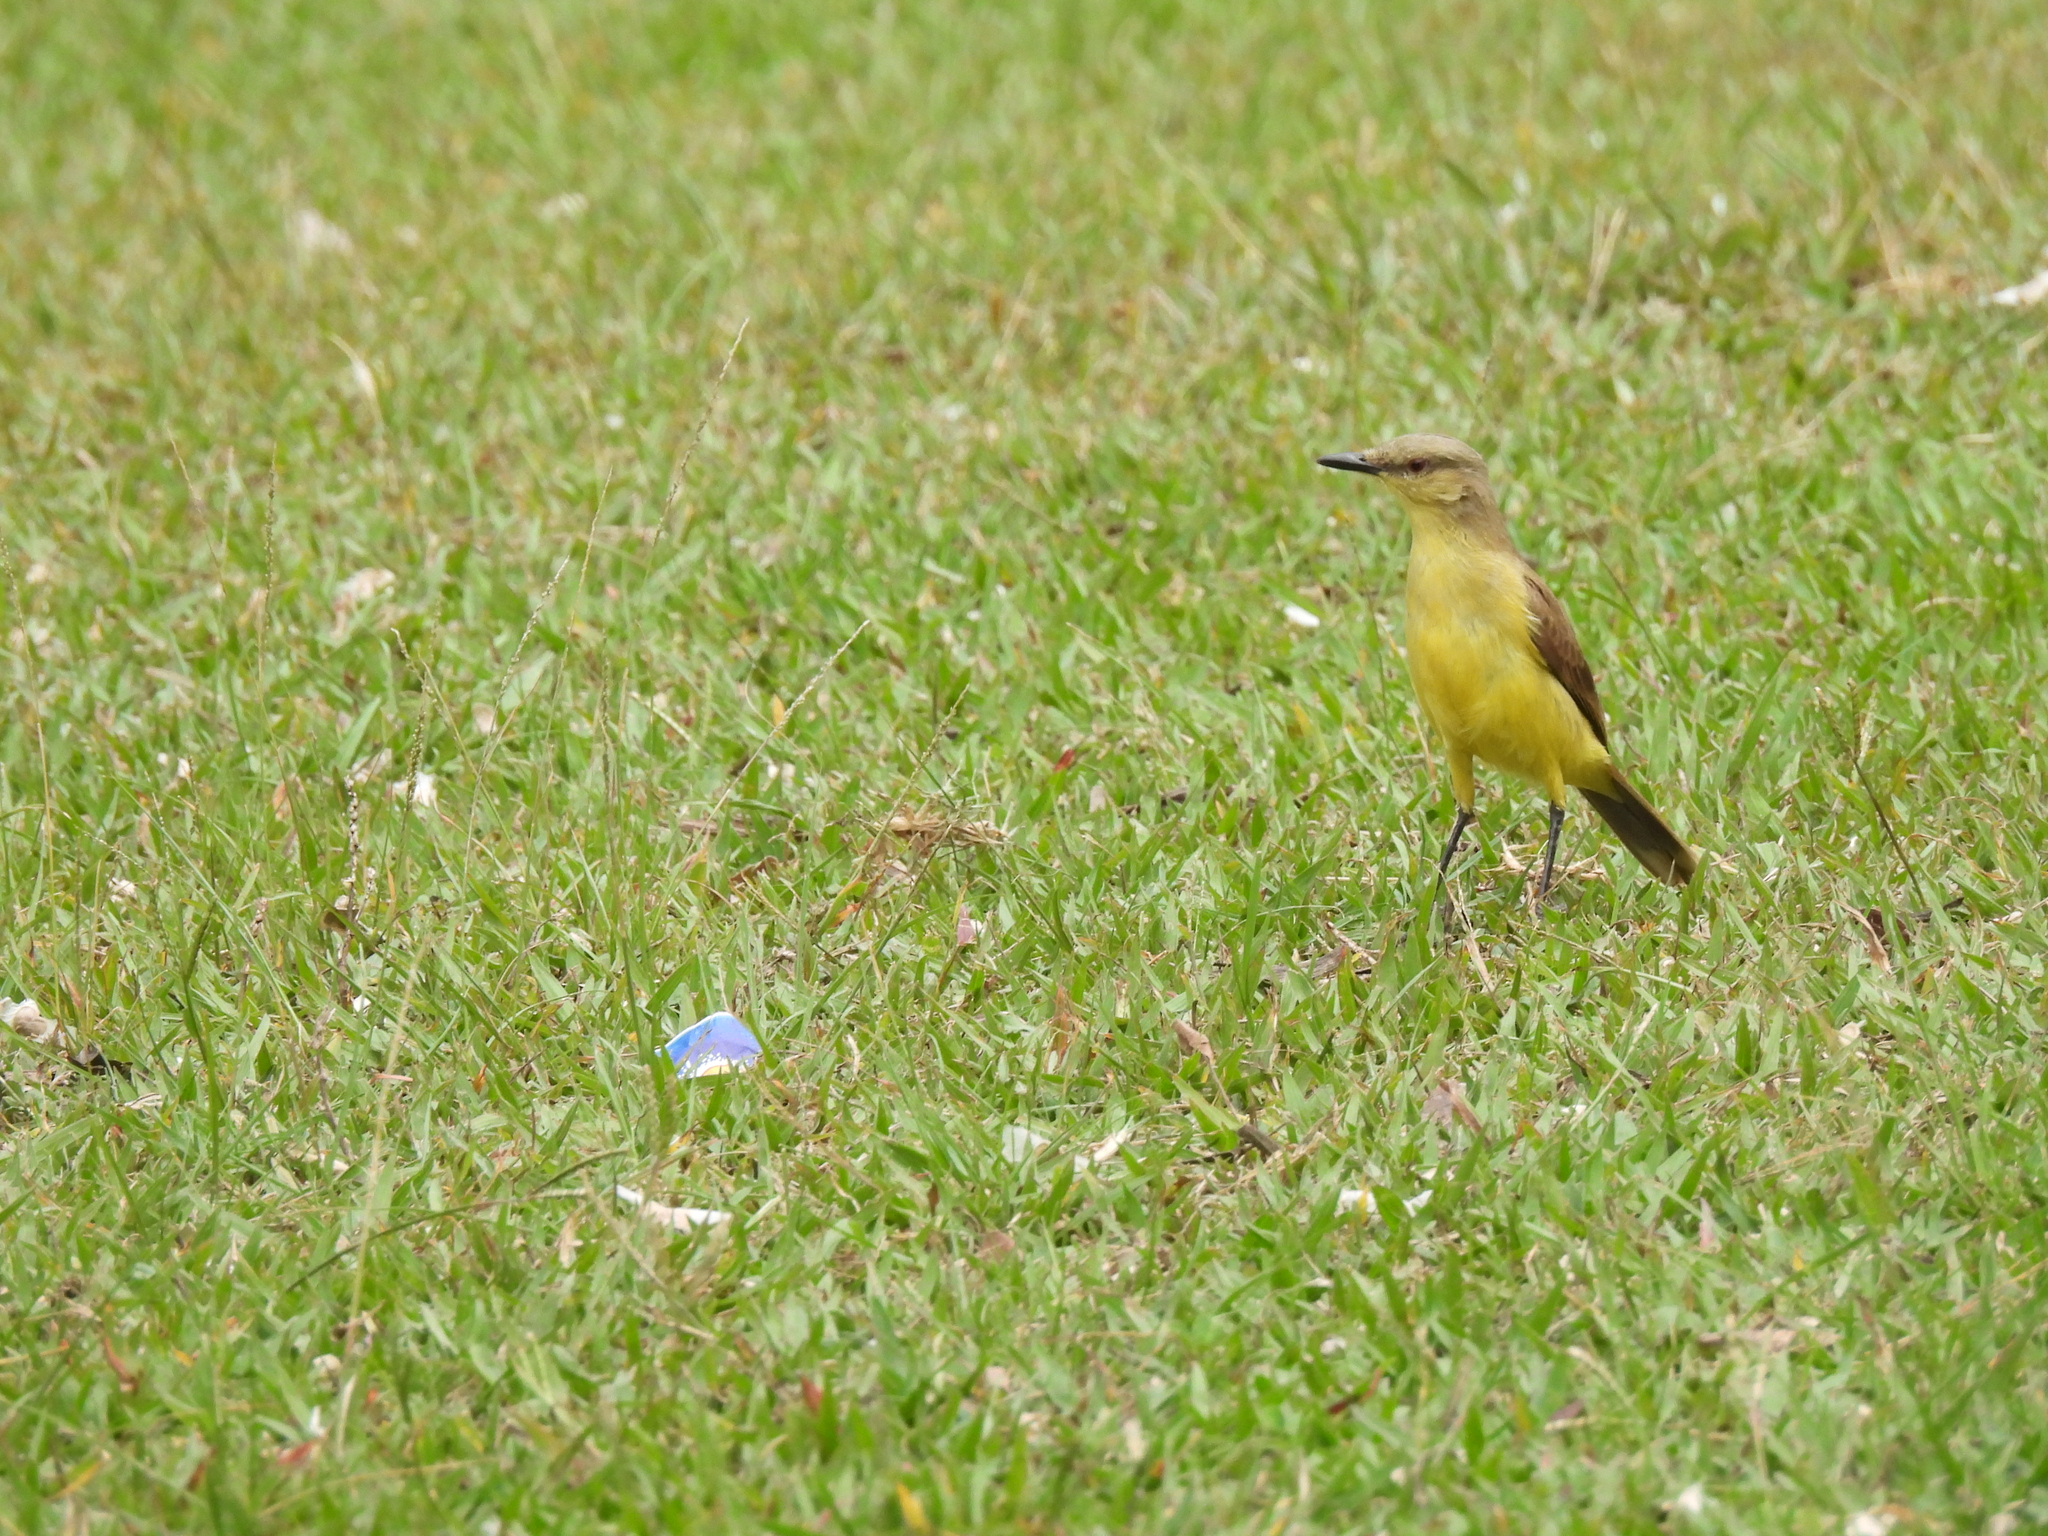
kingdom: Animalia
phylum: Chordata
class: Aves
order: Passeriformes
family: Tyrannidae
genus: Machetornis
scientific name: Machetornis rixosa
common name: Cattle tyrant
